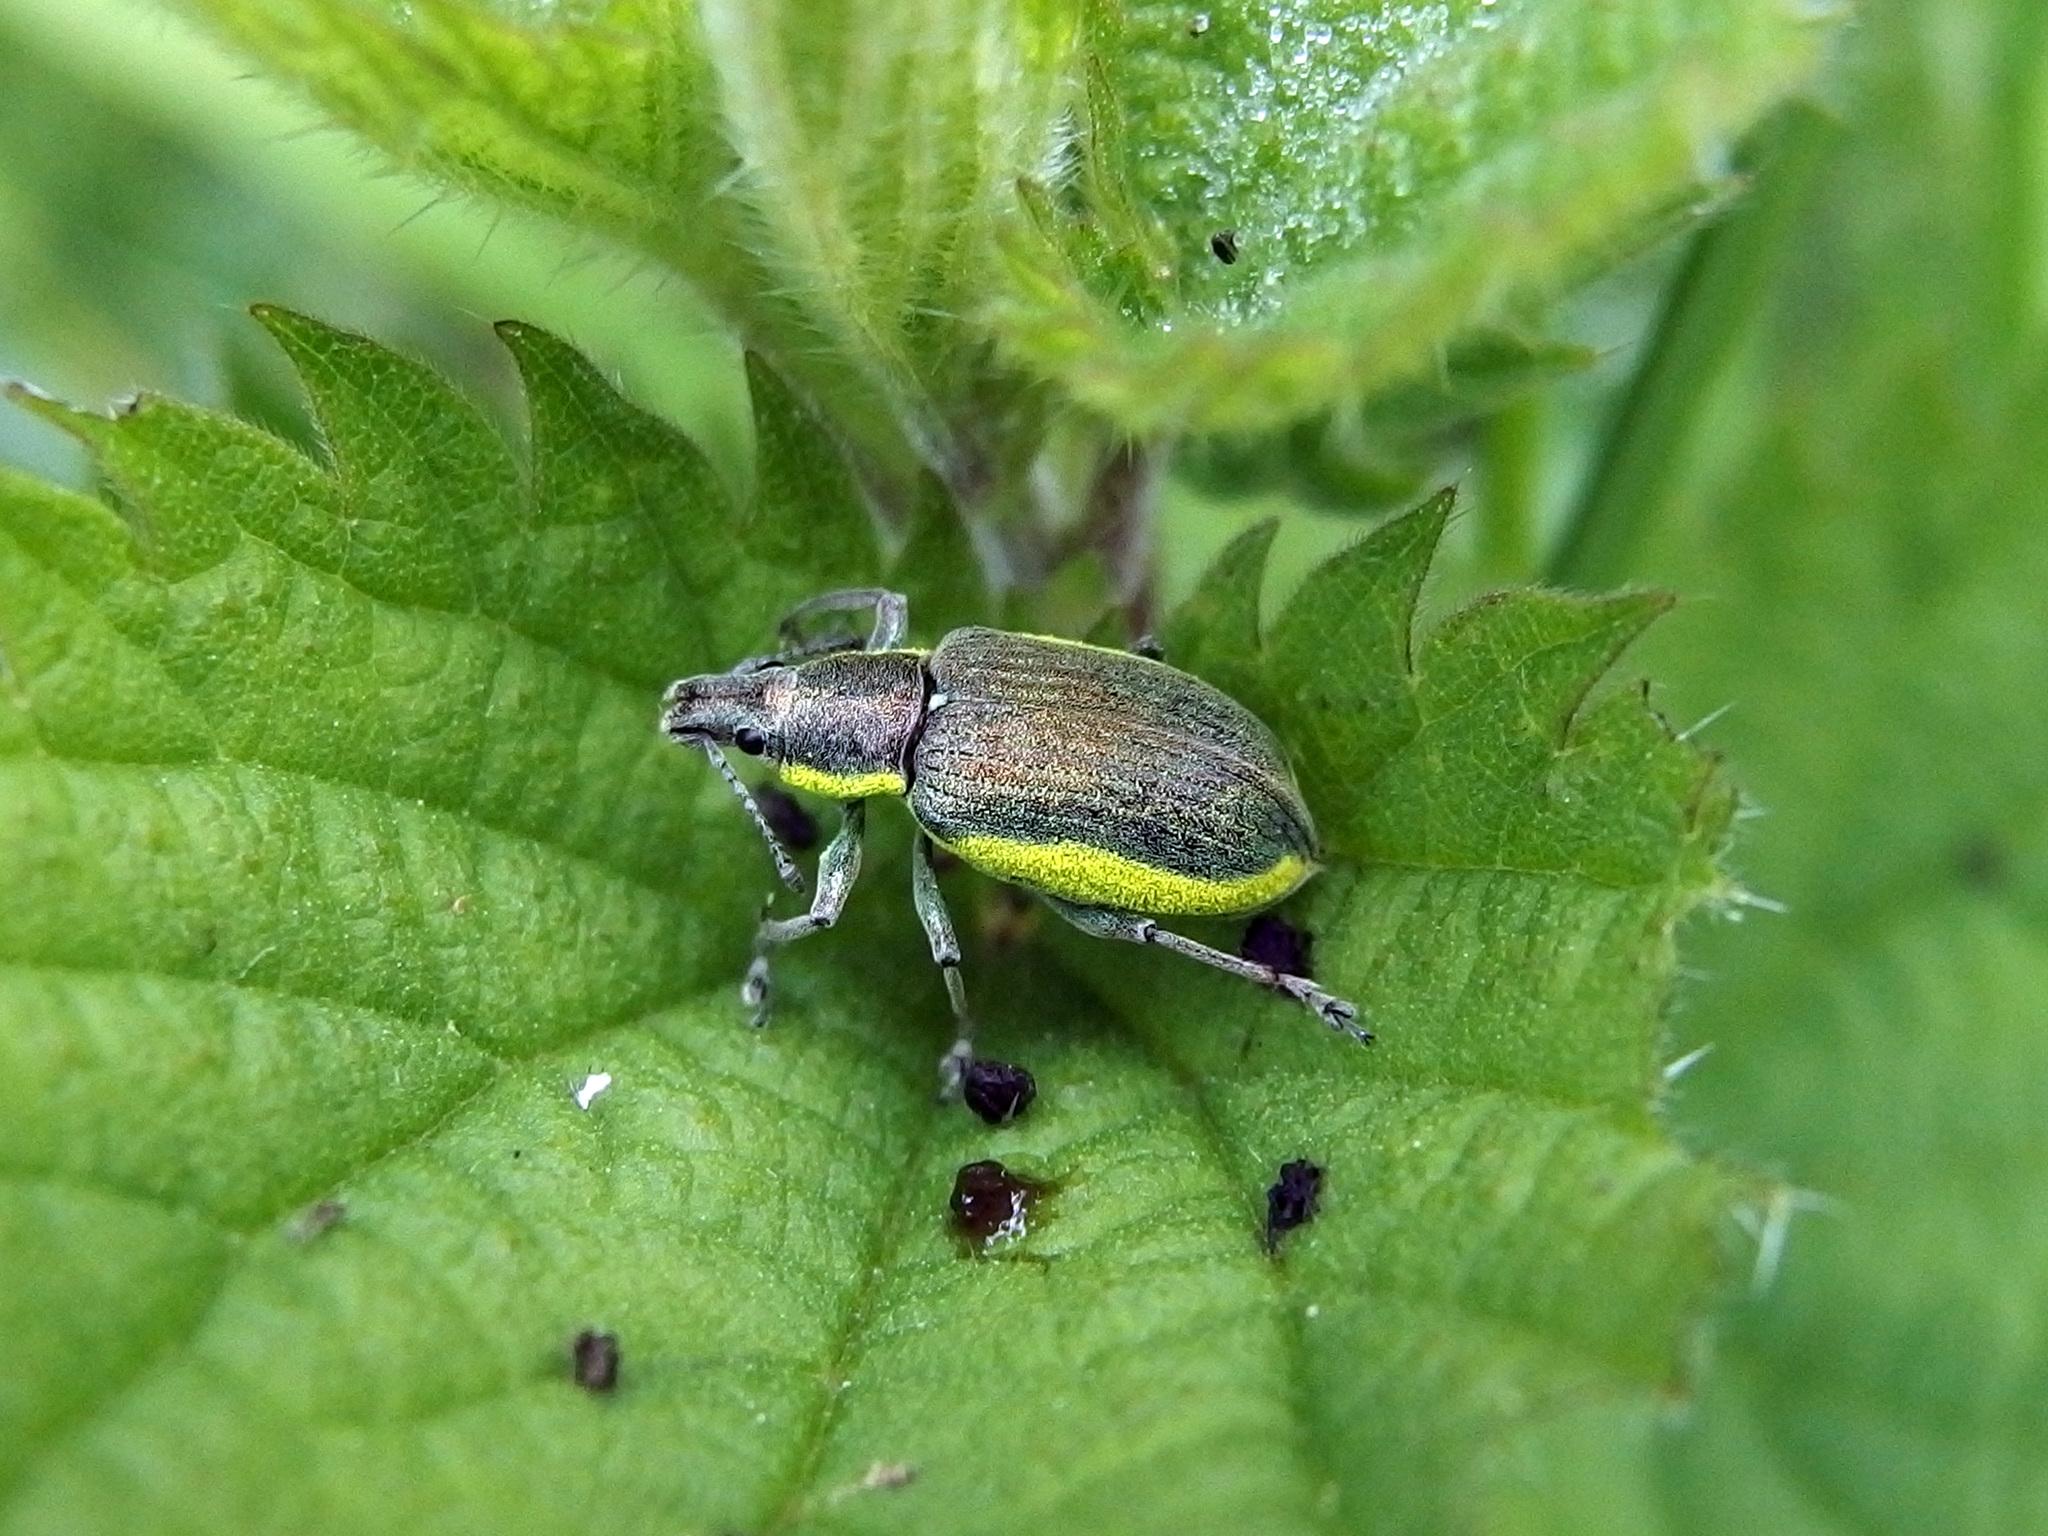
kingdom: Animalia
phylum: Arthropoda
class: Insecta
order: Coleoptera
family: Curculionidae
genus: Chlorophanus
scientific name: Chlorophanus viridis
